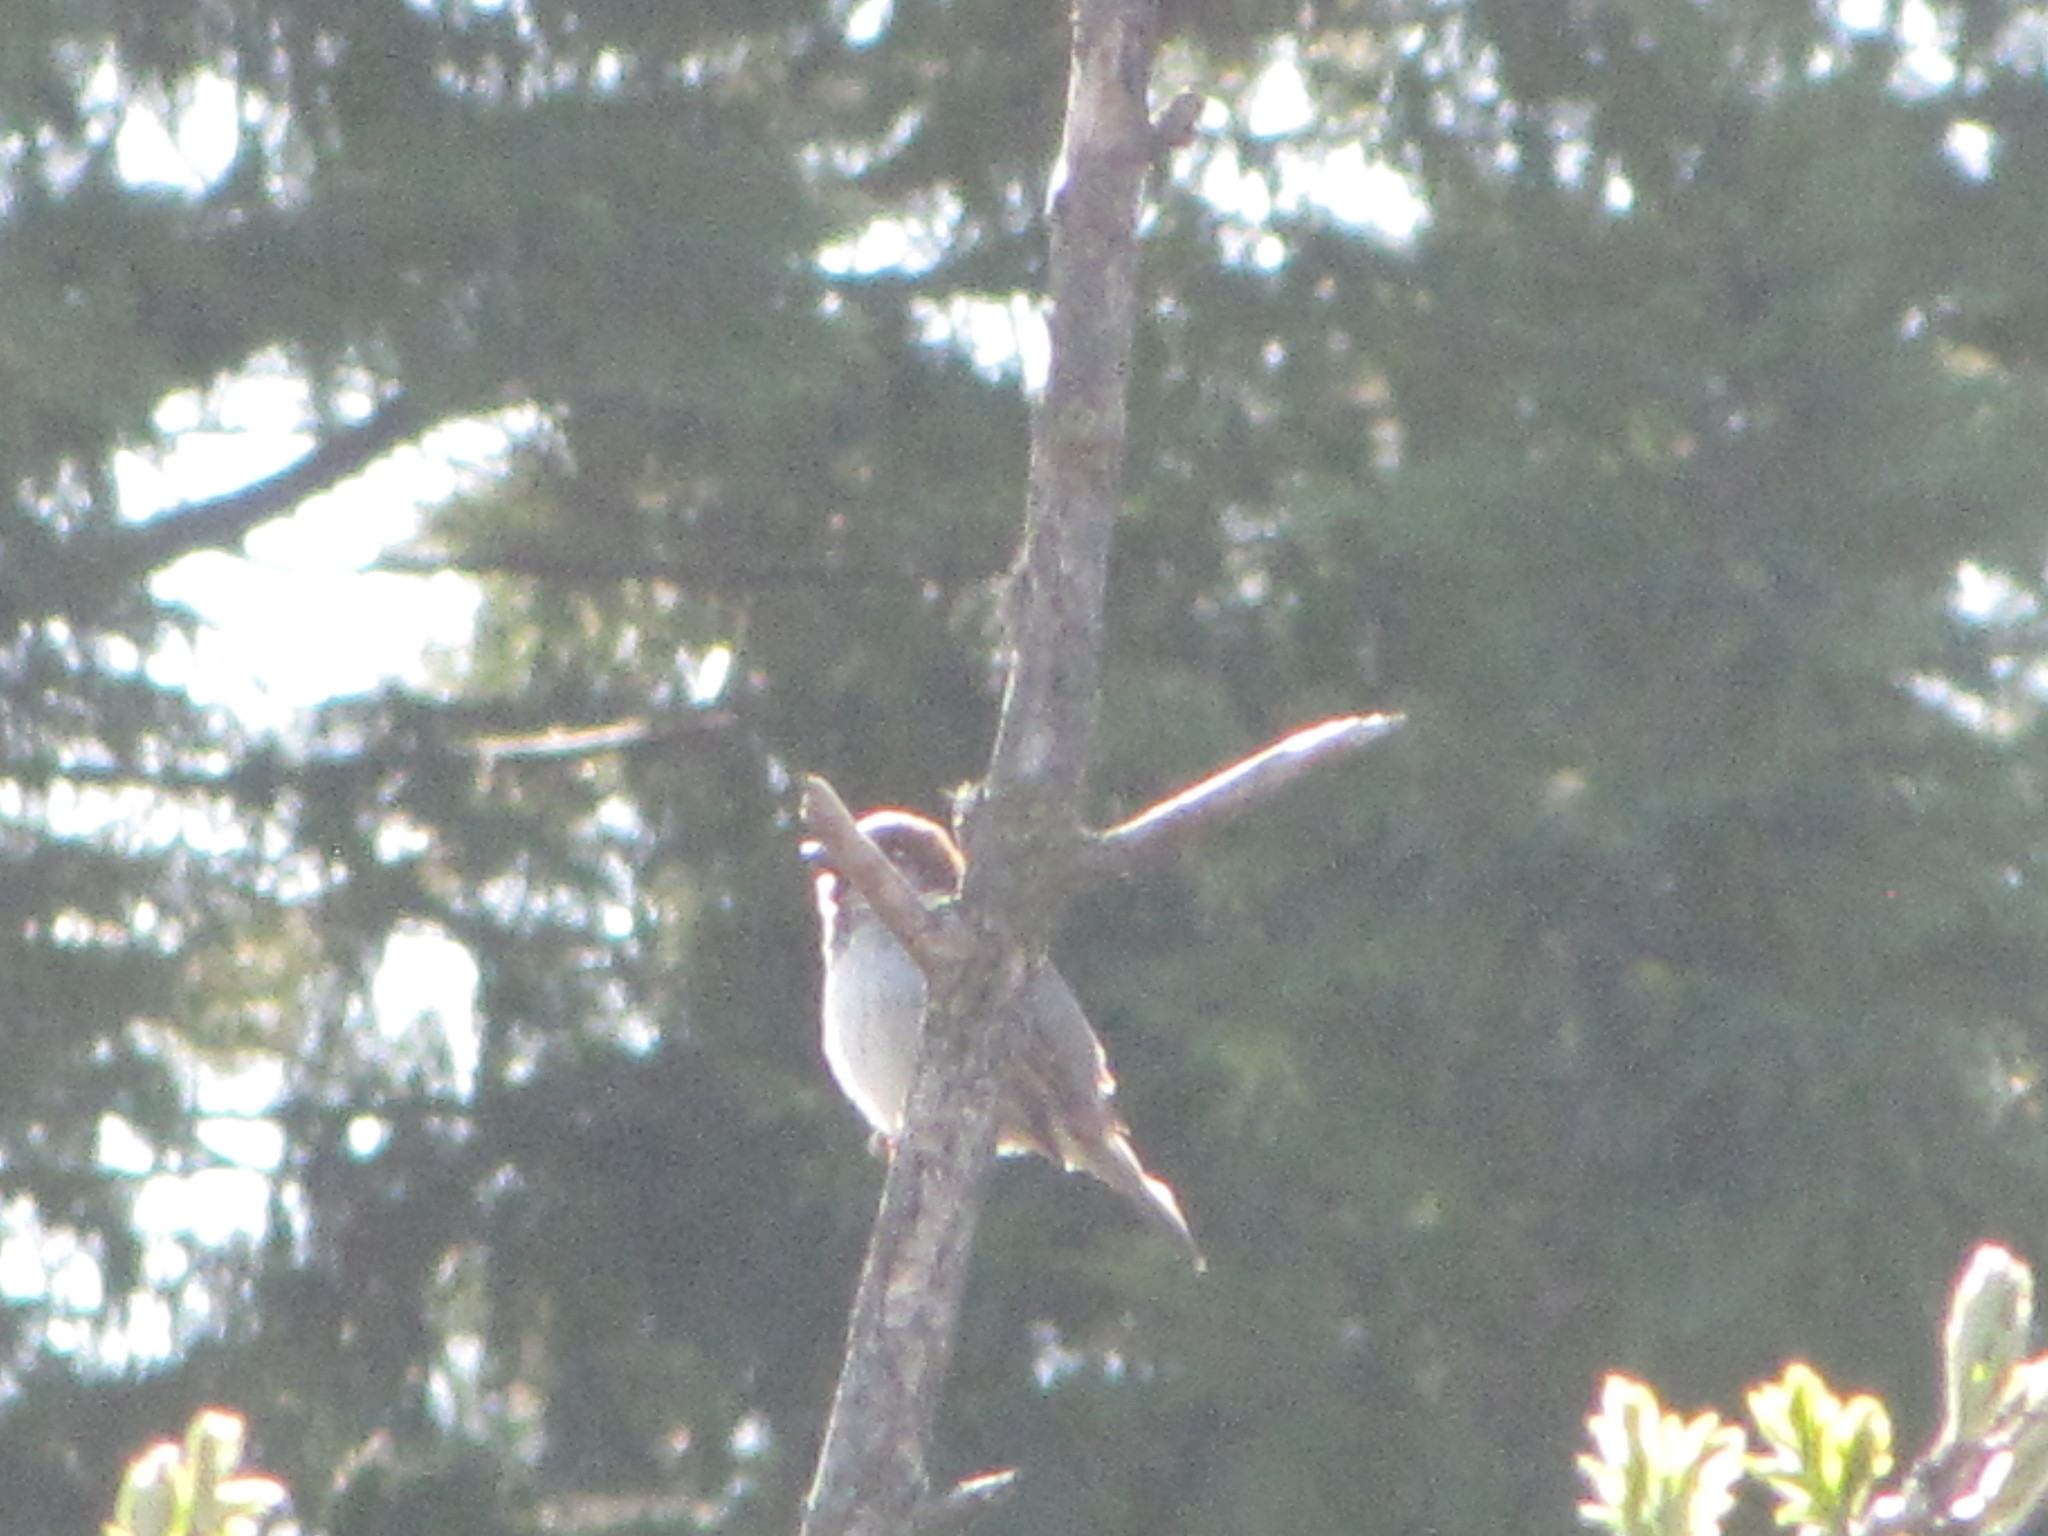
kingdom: Animalia
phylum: Chordata
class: Aves
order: Passeriformes
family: Passeridae
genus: Passer
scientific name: Passer domesticus
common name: House sparrow
